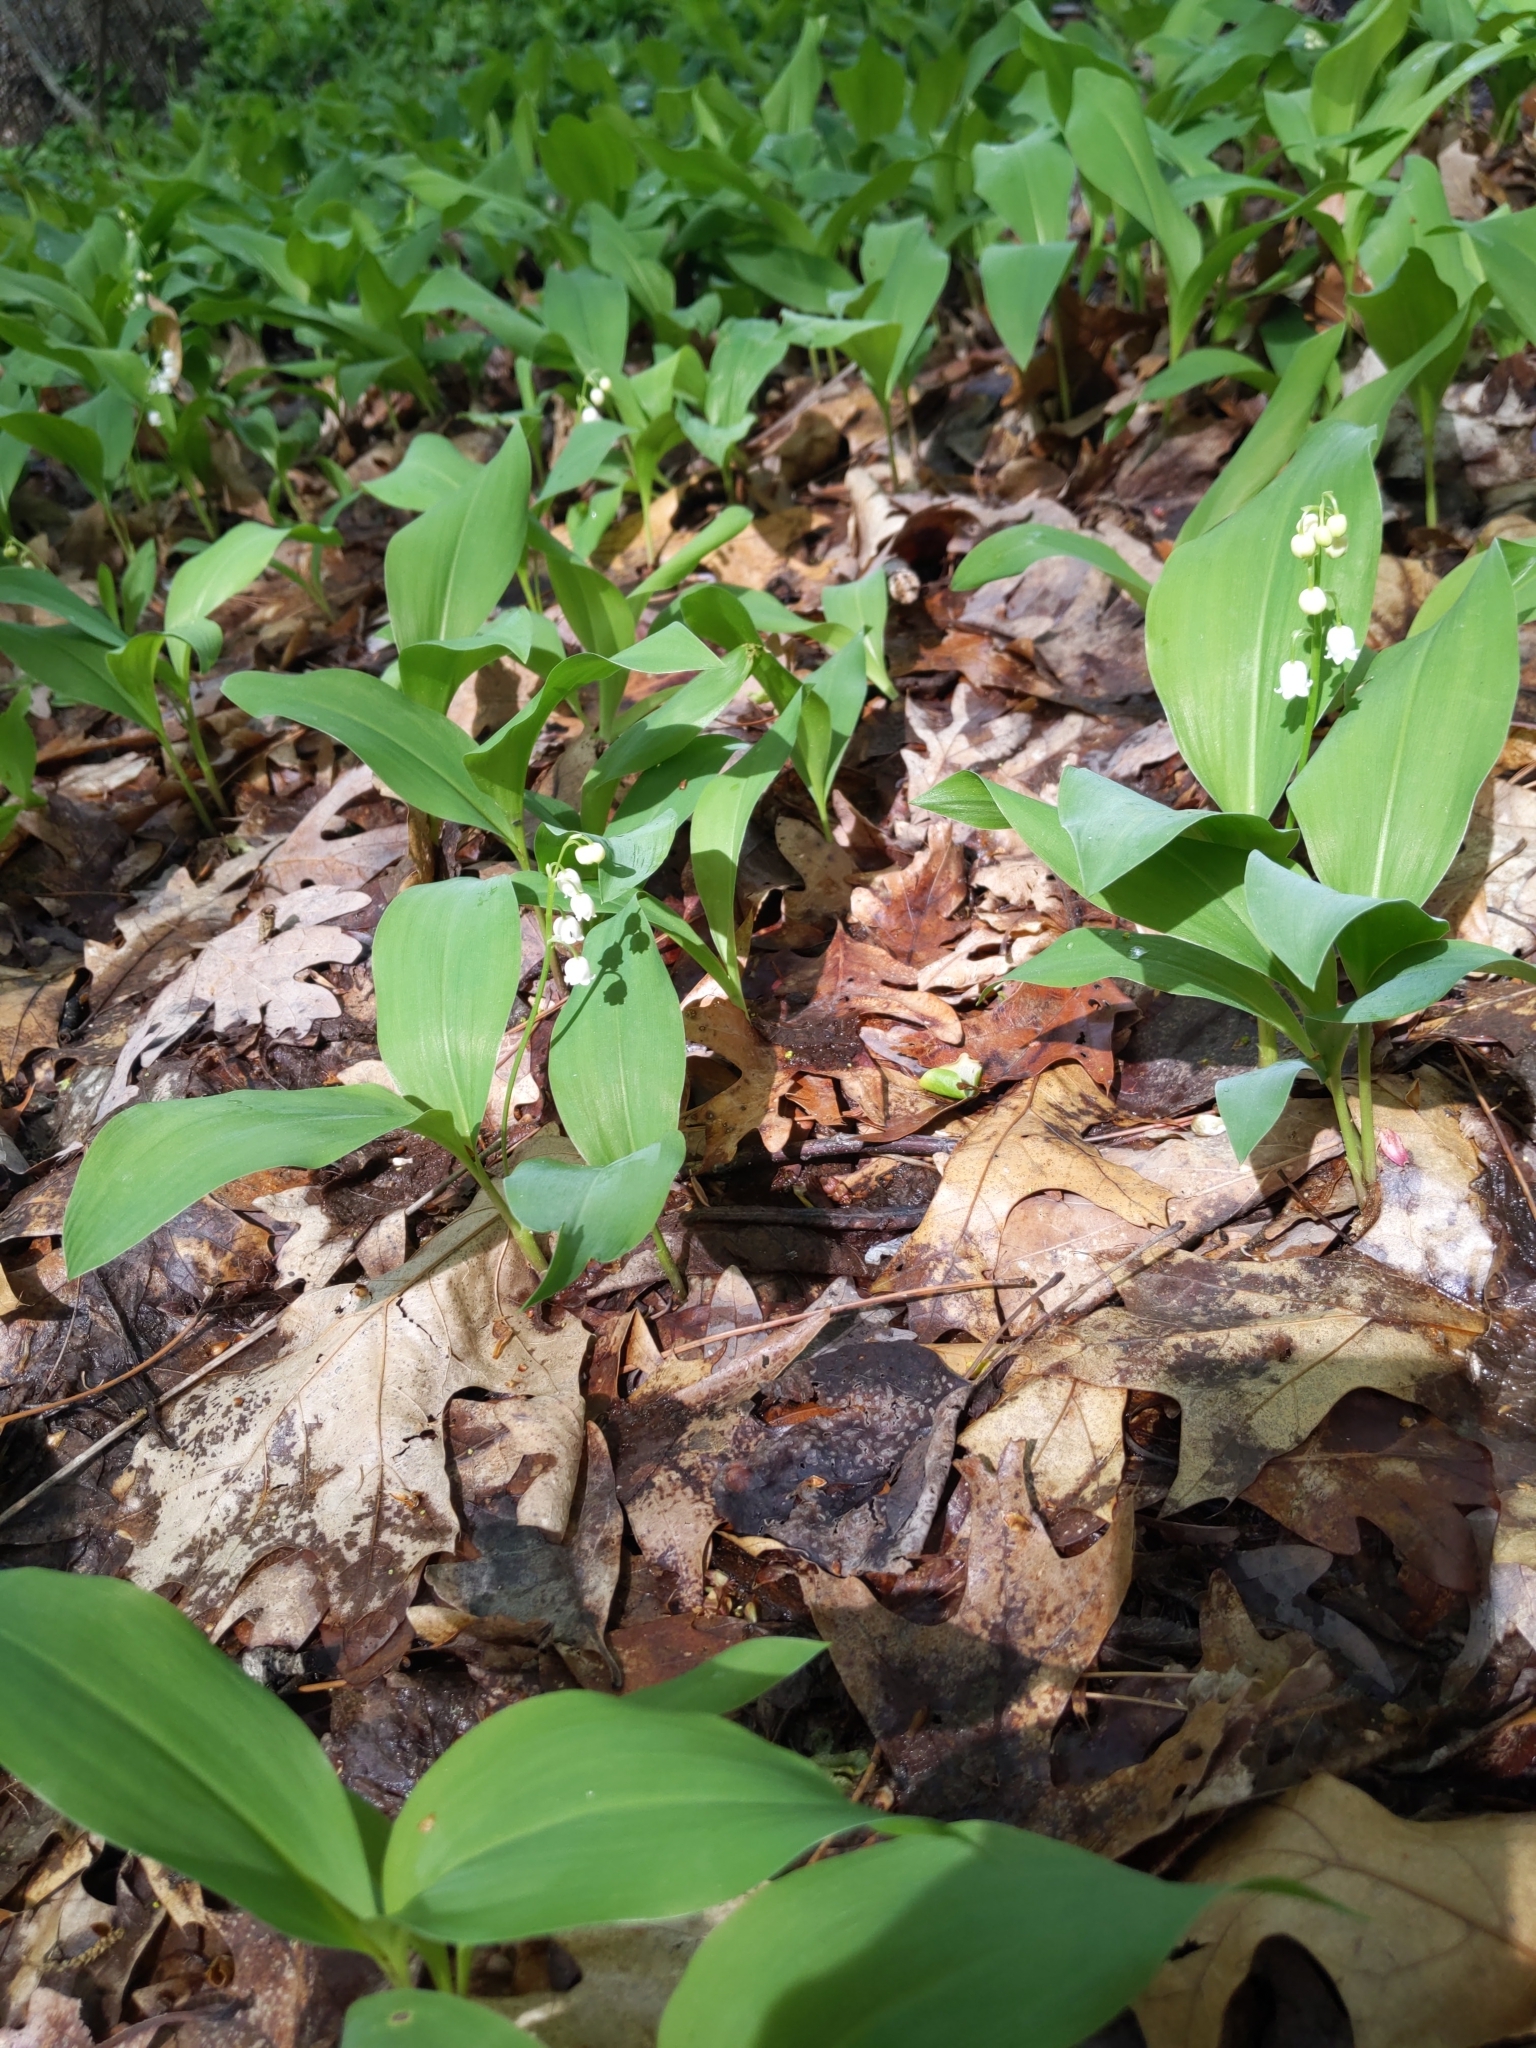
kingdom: Plantae
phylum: Tracheophyta
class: Liliopsida
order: Asparagales
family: Asparagaceae
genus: Convallaria
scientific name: Convallaria majalis
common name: Lily-of-the-valley
